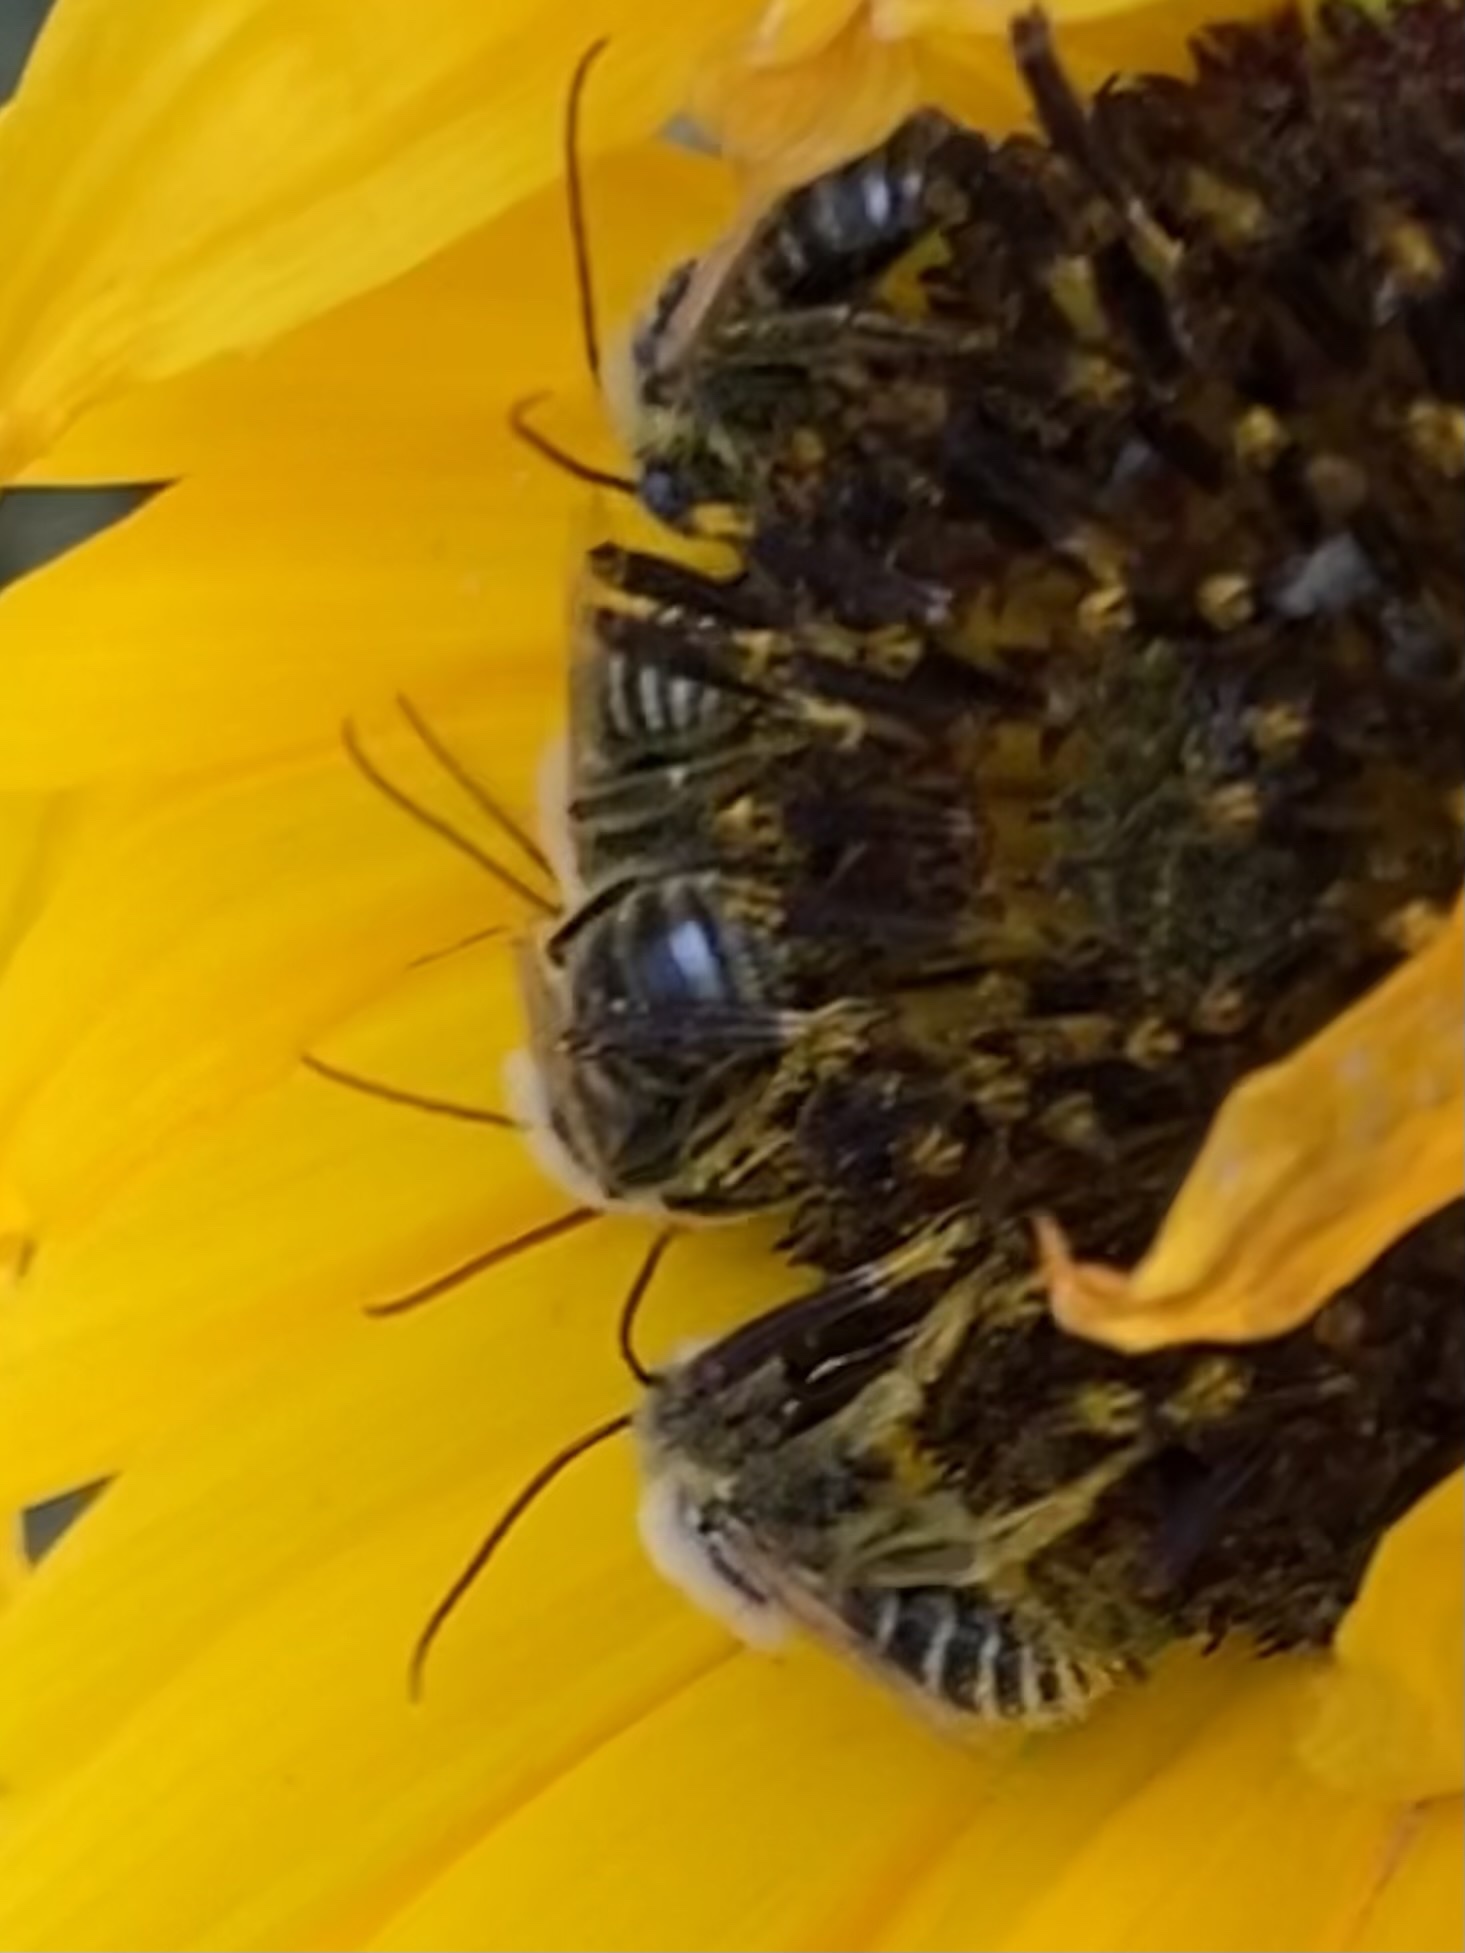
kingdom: Animalia
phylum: Arthropoda
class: Insecta
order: Hymenoptera
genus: Eumelissodes
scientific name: Eumelissodes
